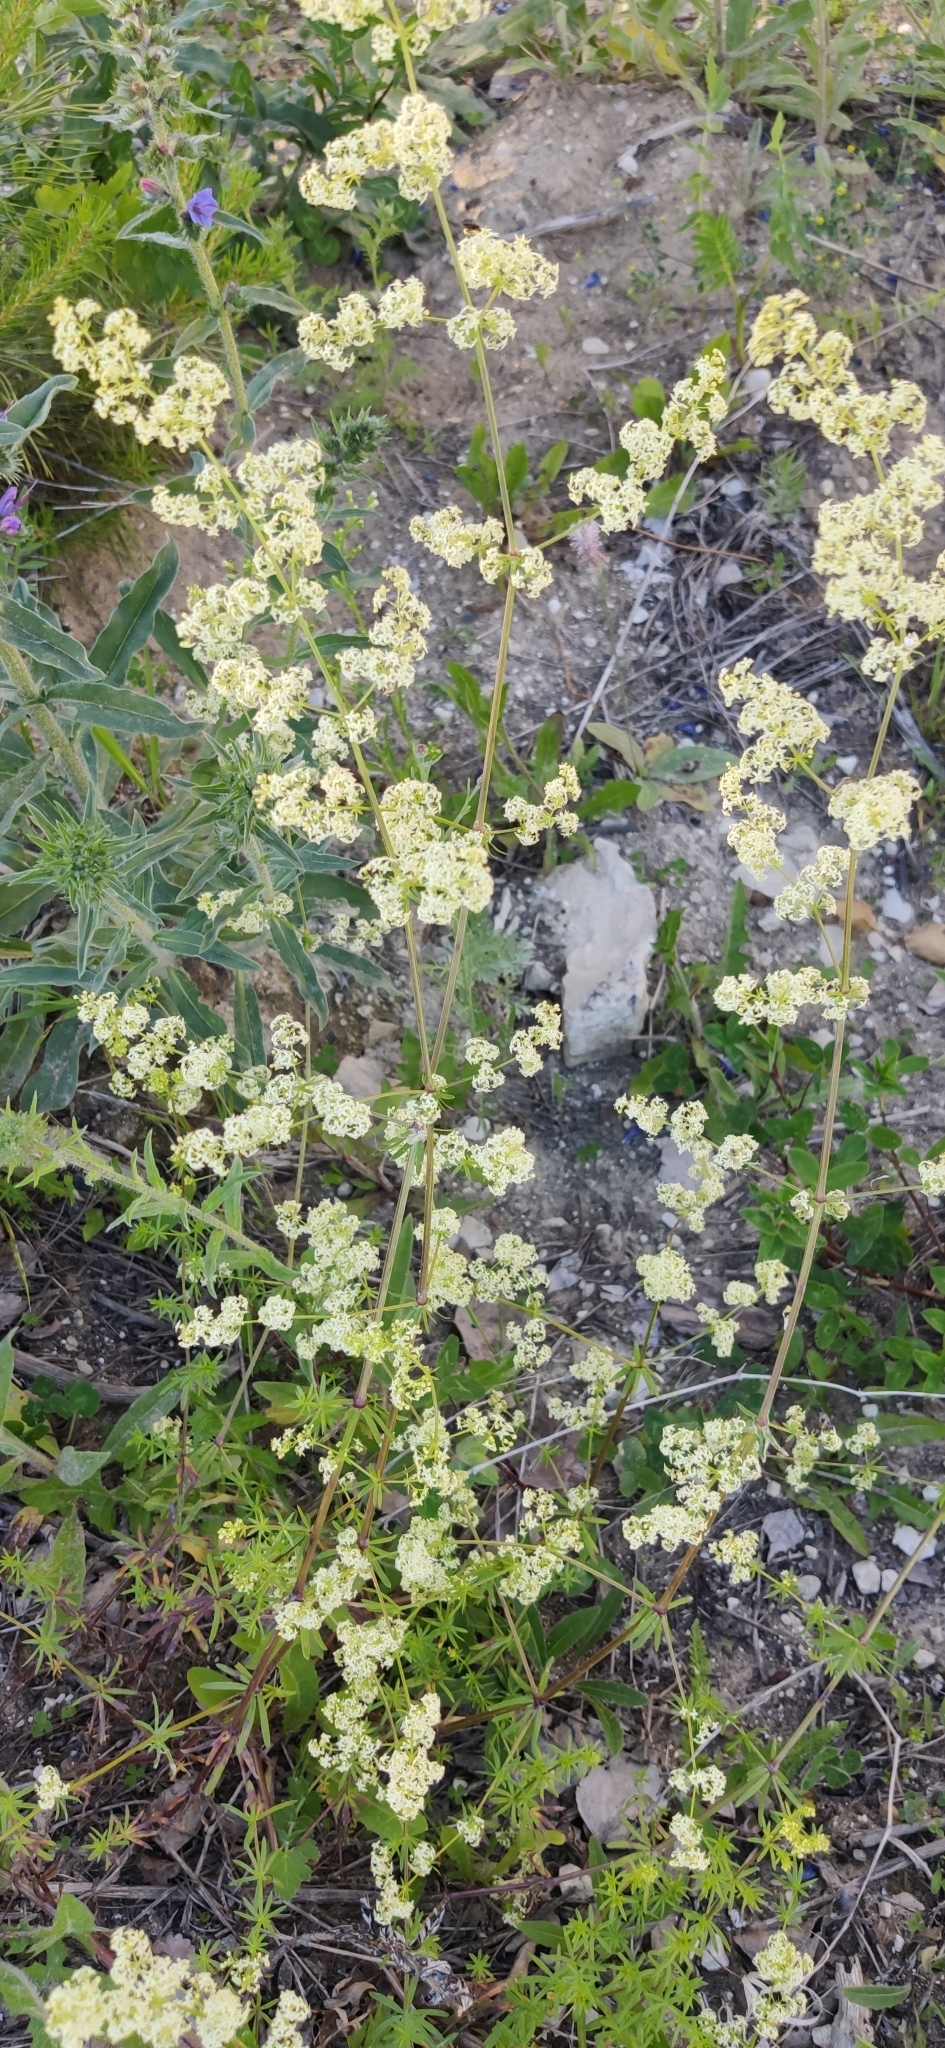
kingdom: Plantae
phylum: Tracheophyta
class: Magnoliopsida
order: Gentianales
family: Rubiaceae
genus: Galium
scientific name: Galium mollugo
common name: Hedge bedstraw
